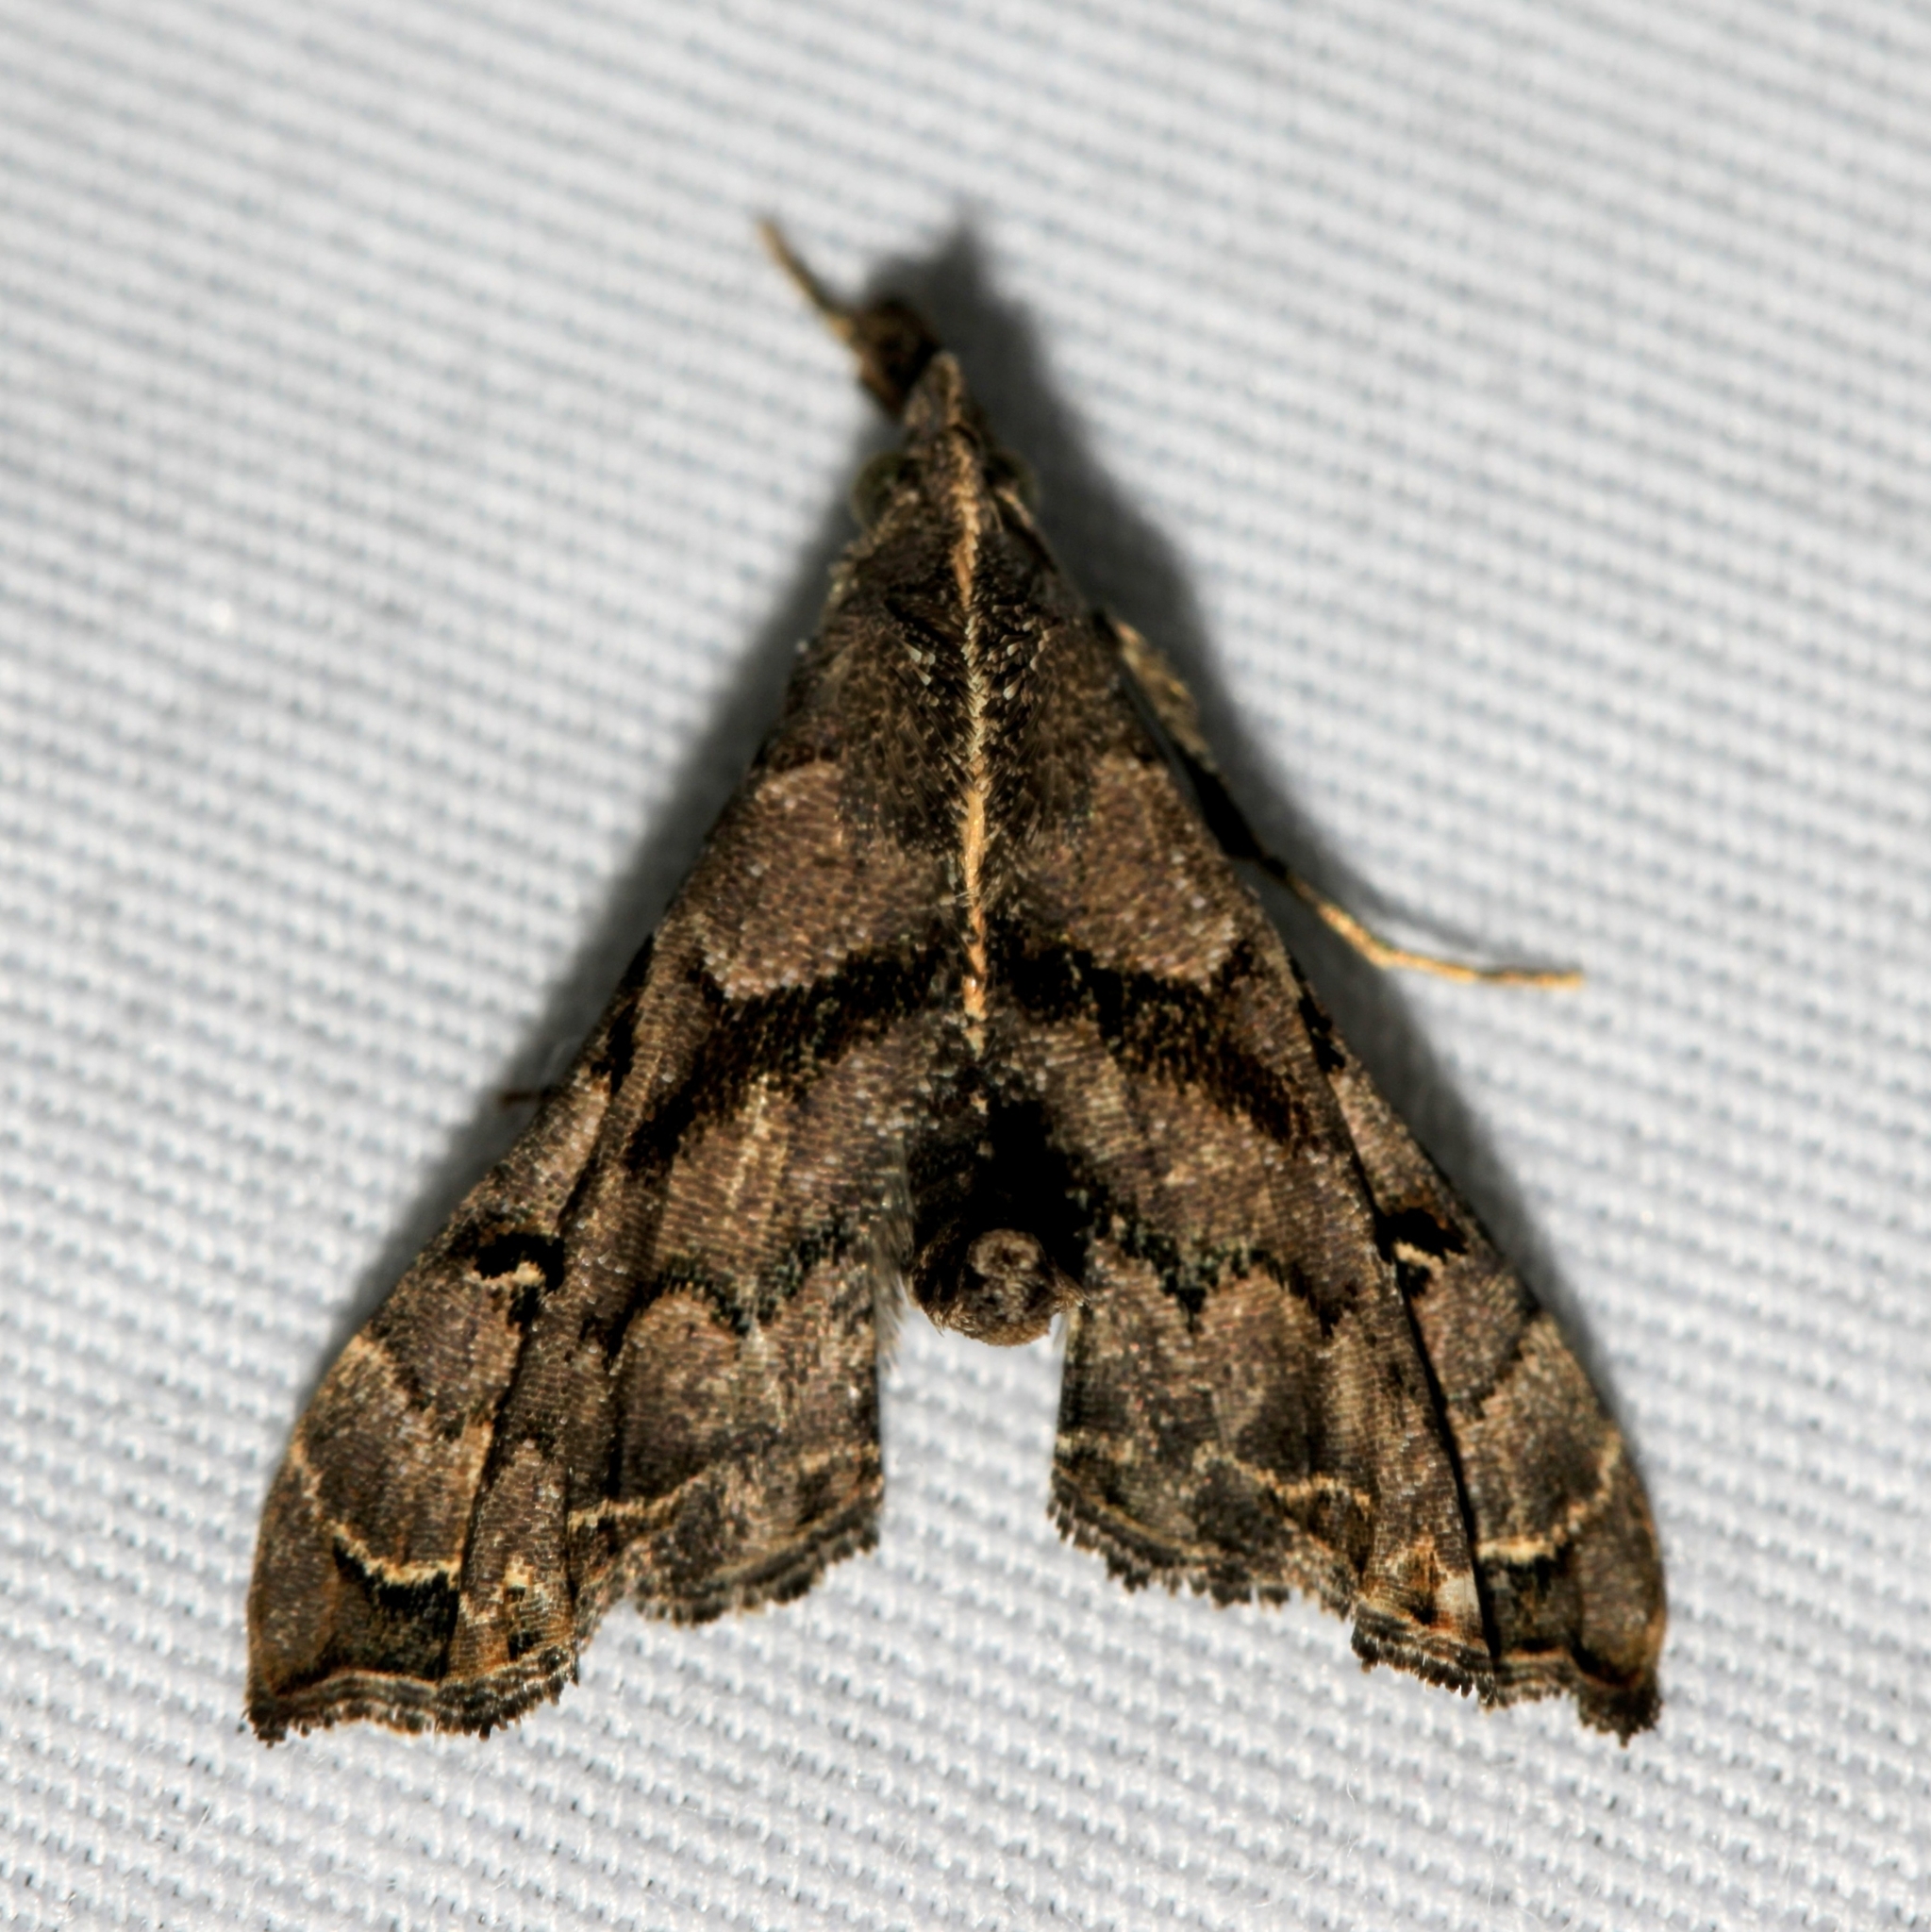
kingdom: Animalia
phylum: Arthropoda
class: Insecta
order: Lepidoptera
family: Erebidae
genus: Palthis
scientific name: Palthis asopialis
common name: Faint-spotted palthis moth
